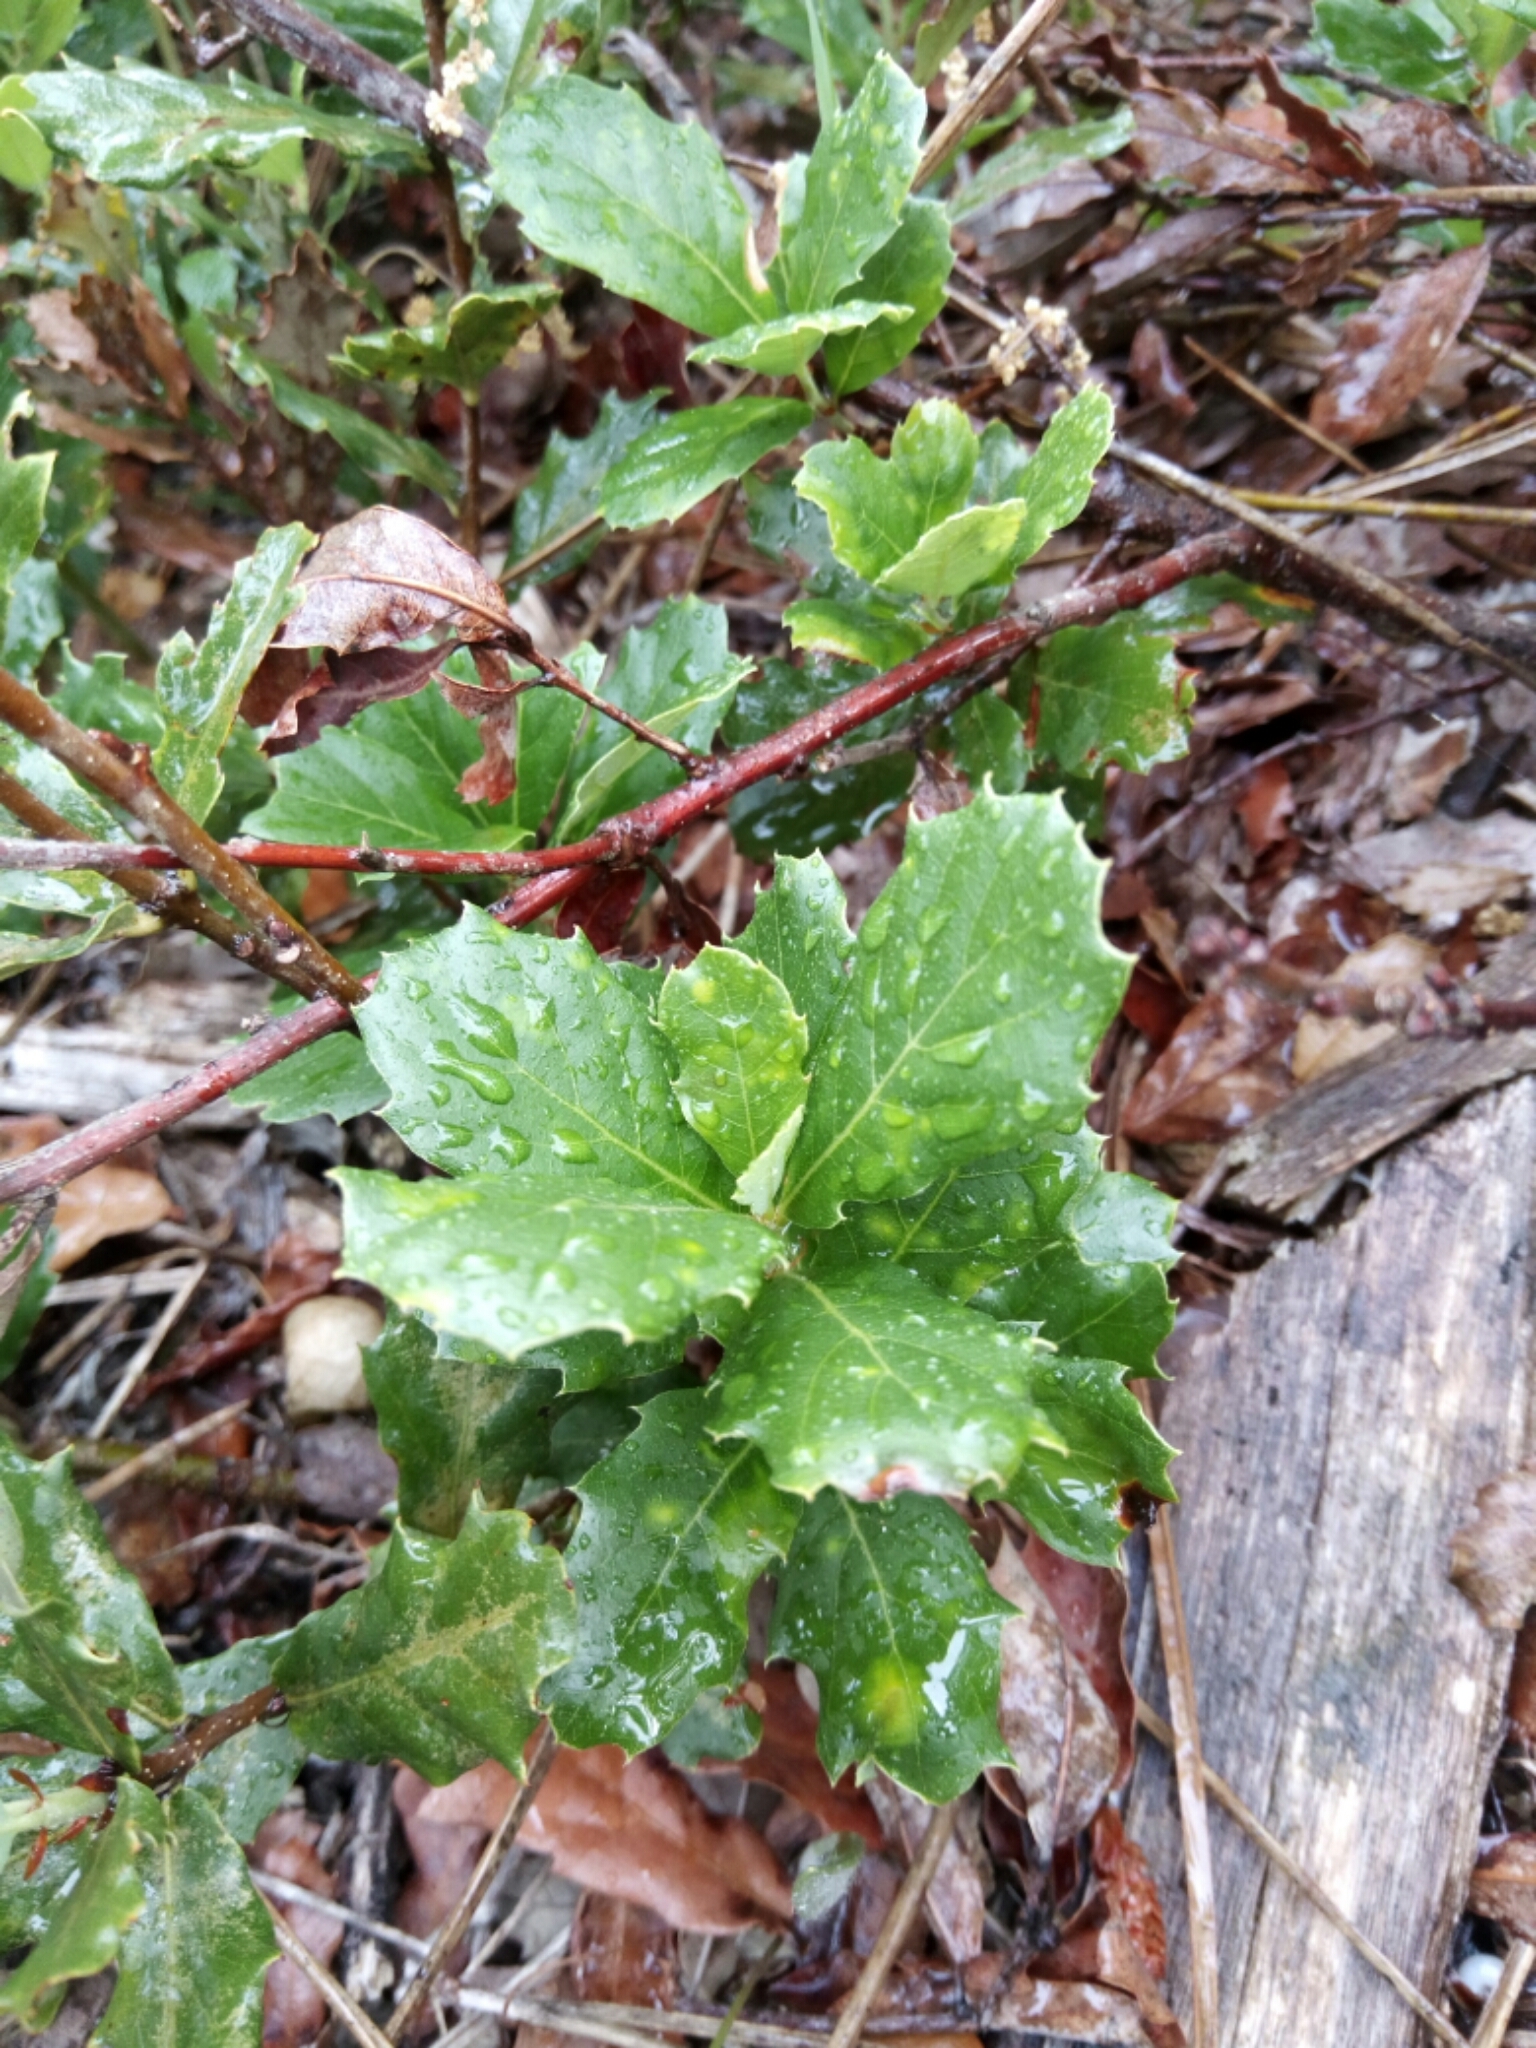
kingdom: Plantae
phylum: Tracheophyta
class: Magnoliopsida
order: Fagales
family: Fagaceae
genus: Quercus
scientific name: Quercus lusitanica
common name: Scrub gall oak
